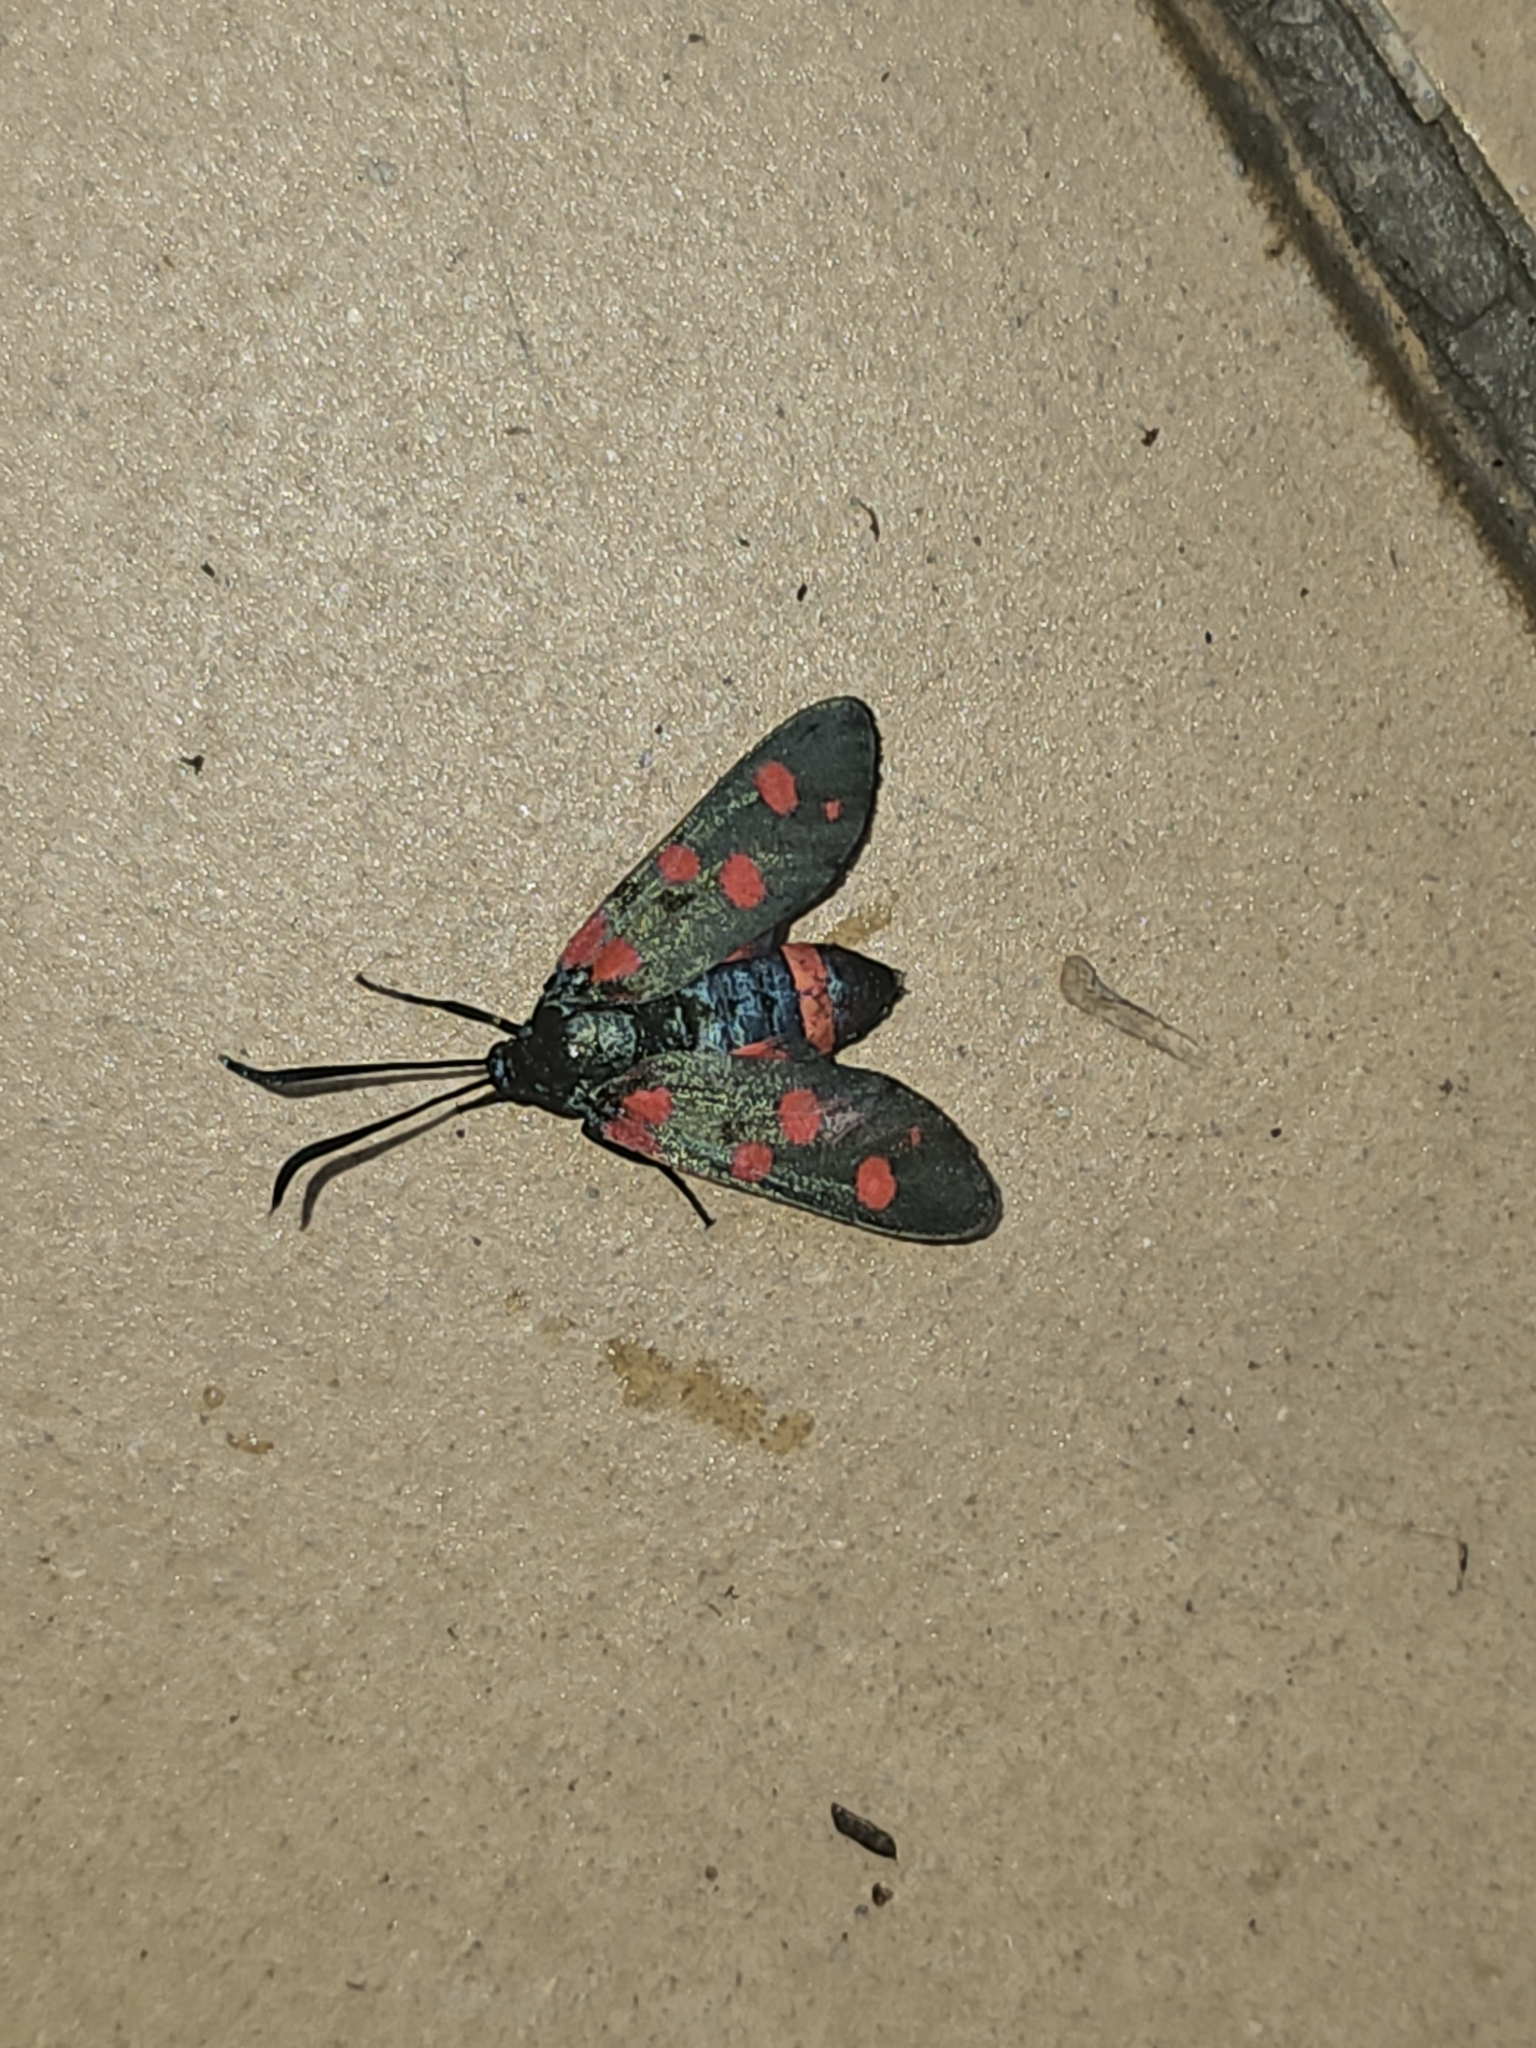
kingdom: Animalia
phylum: Arthropoda
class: Insecta
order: Lepidoptera
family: Zygaenidae
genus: Zygaena
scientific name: Zygaena trifolii
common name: Five-spot burnet
